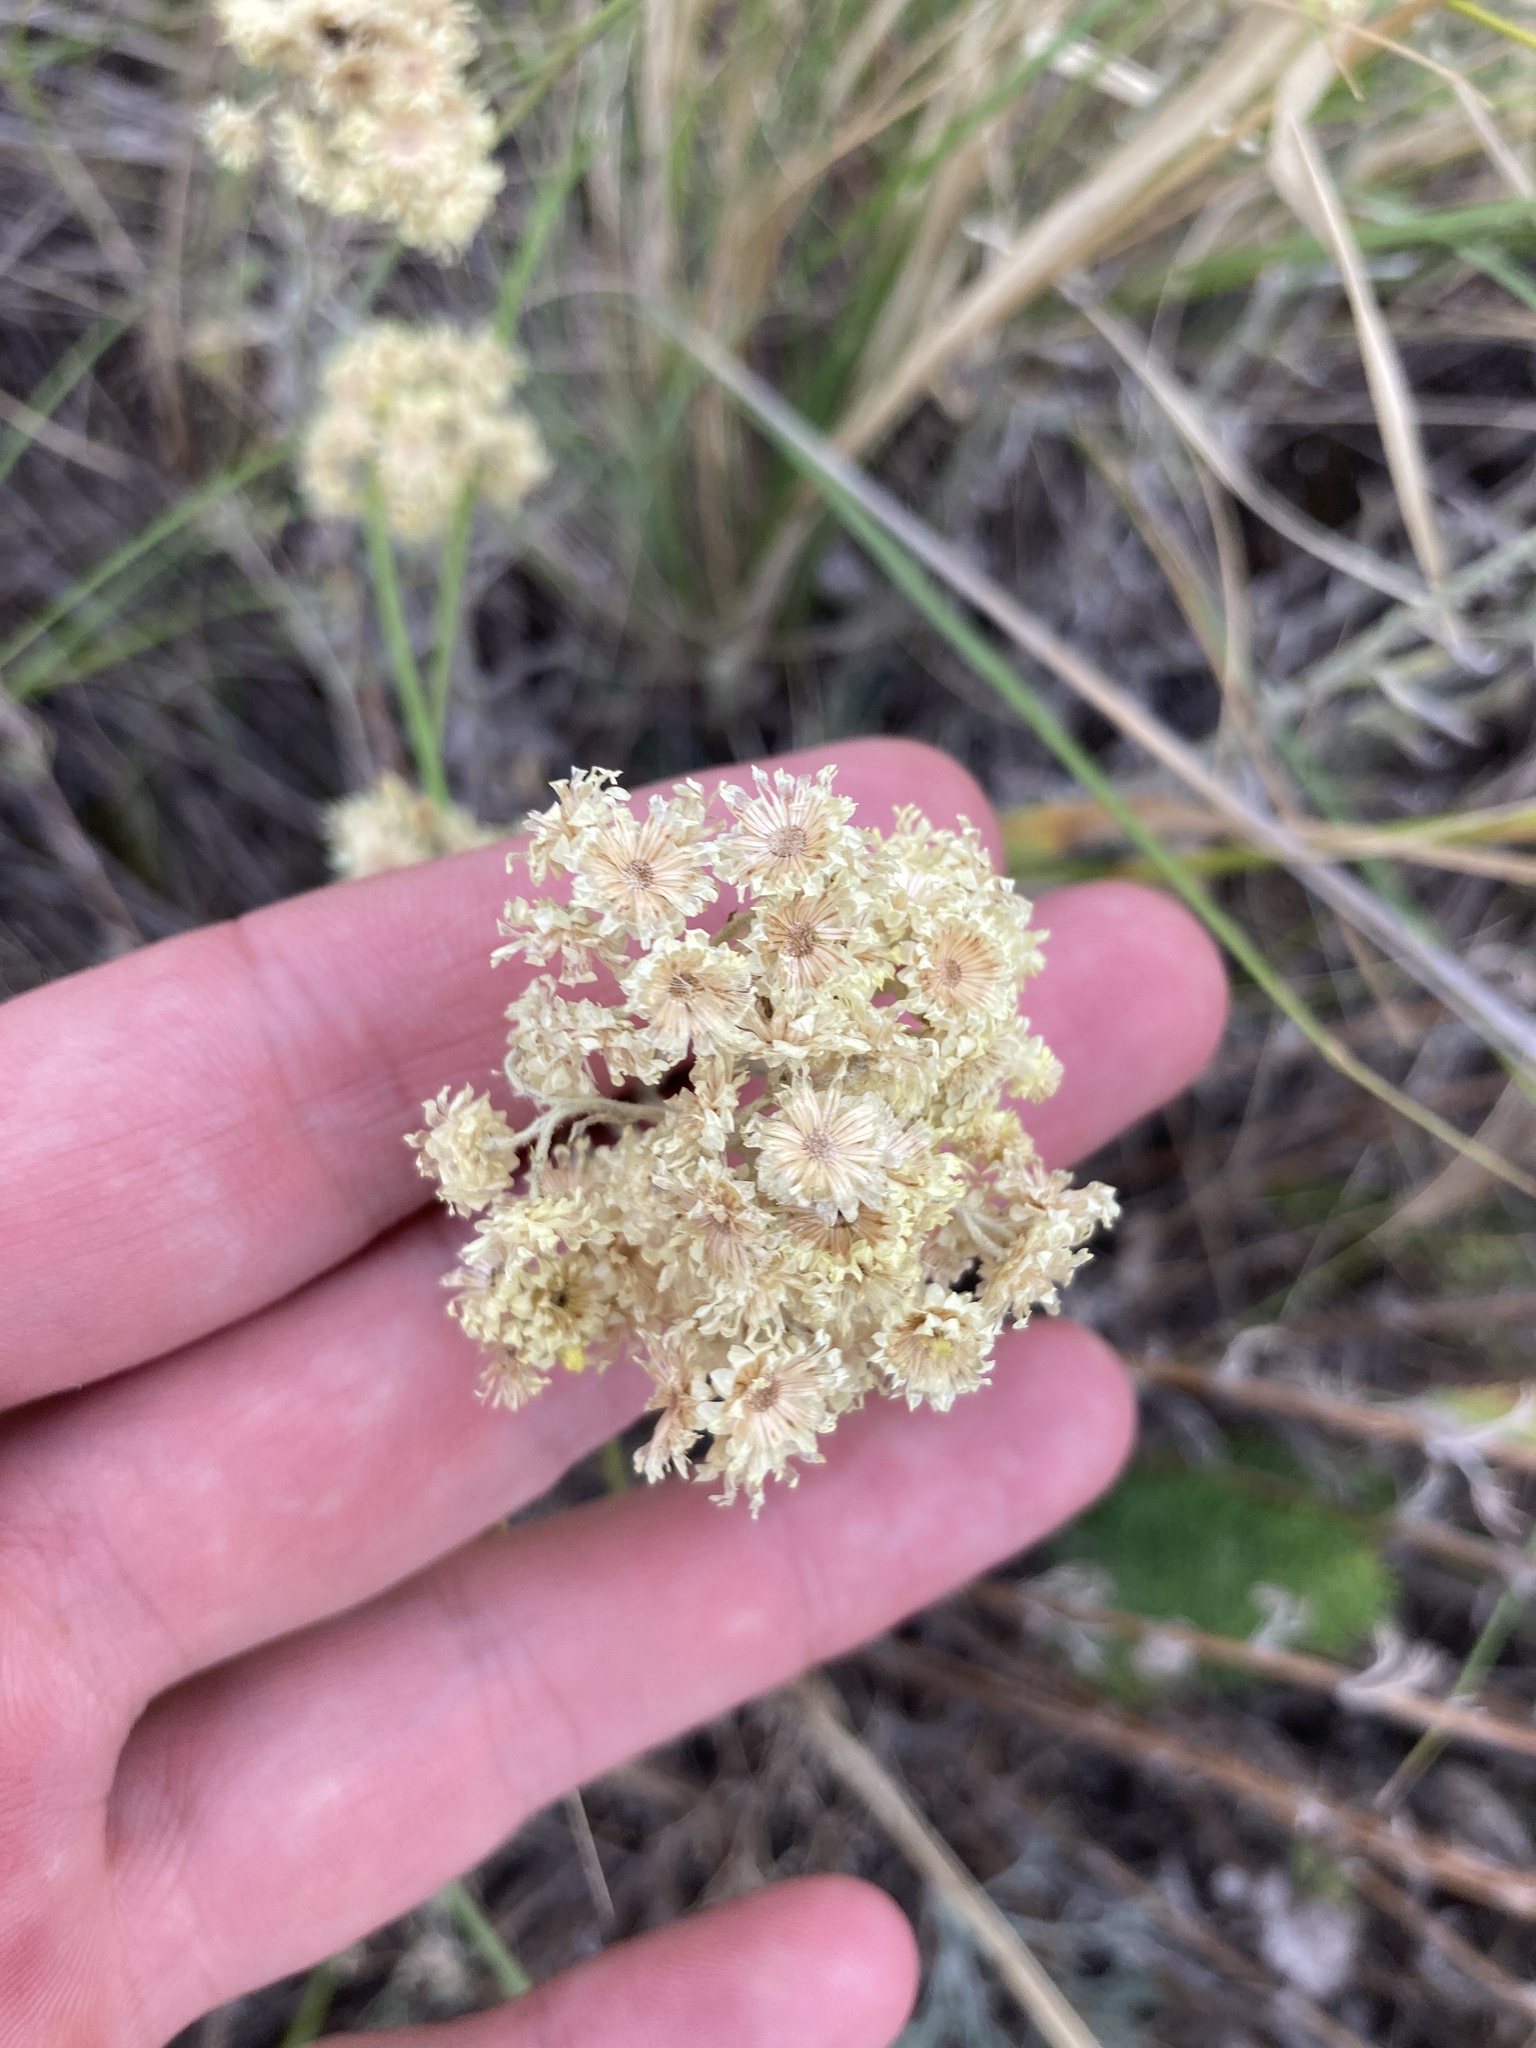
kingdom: Plantae
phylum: Tracheophyta
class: Magnoliopsida
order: Asterales
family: Asteraceae
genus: Helichrysum
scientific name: Helichrysum arenarium
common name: Strawflower
